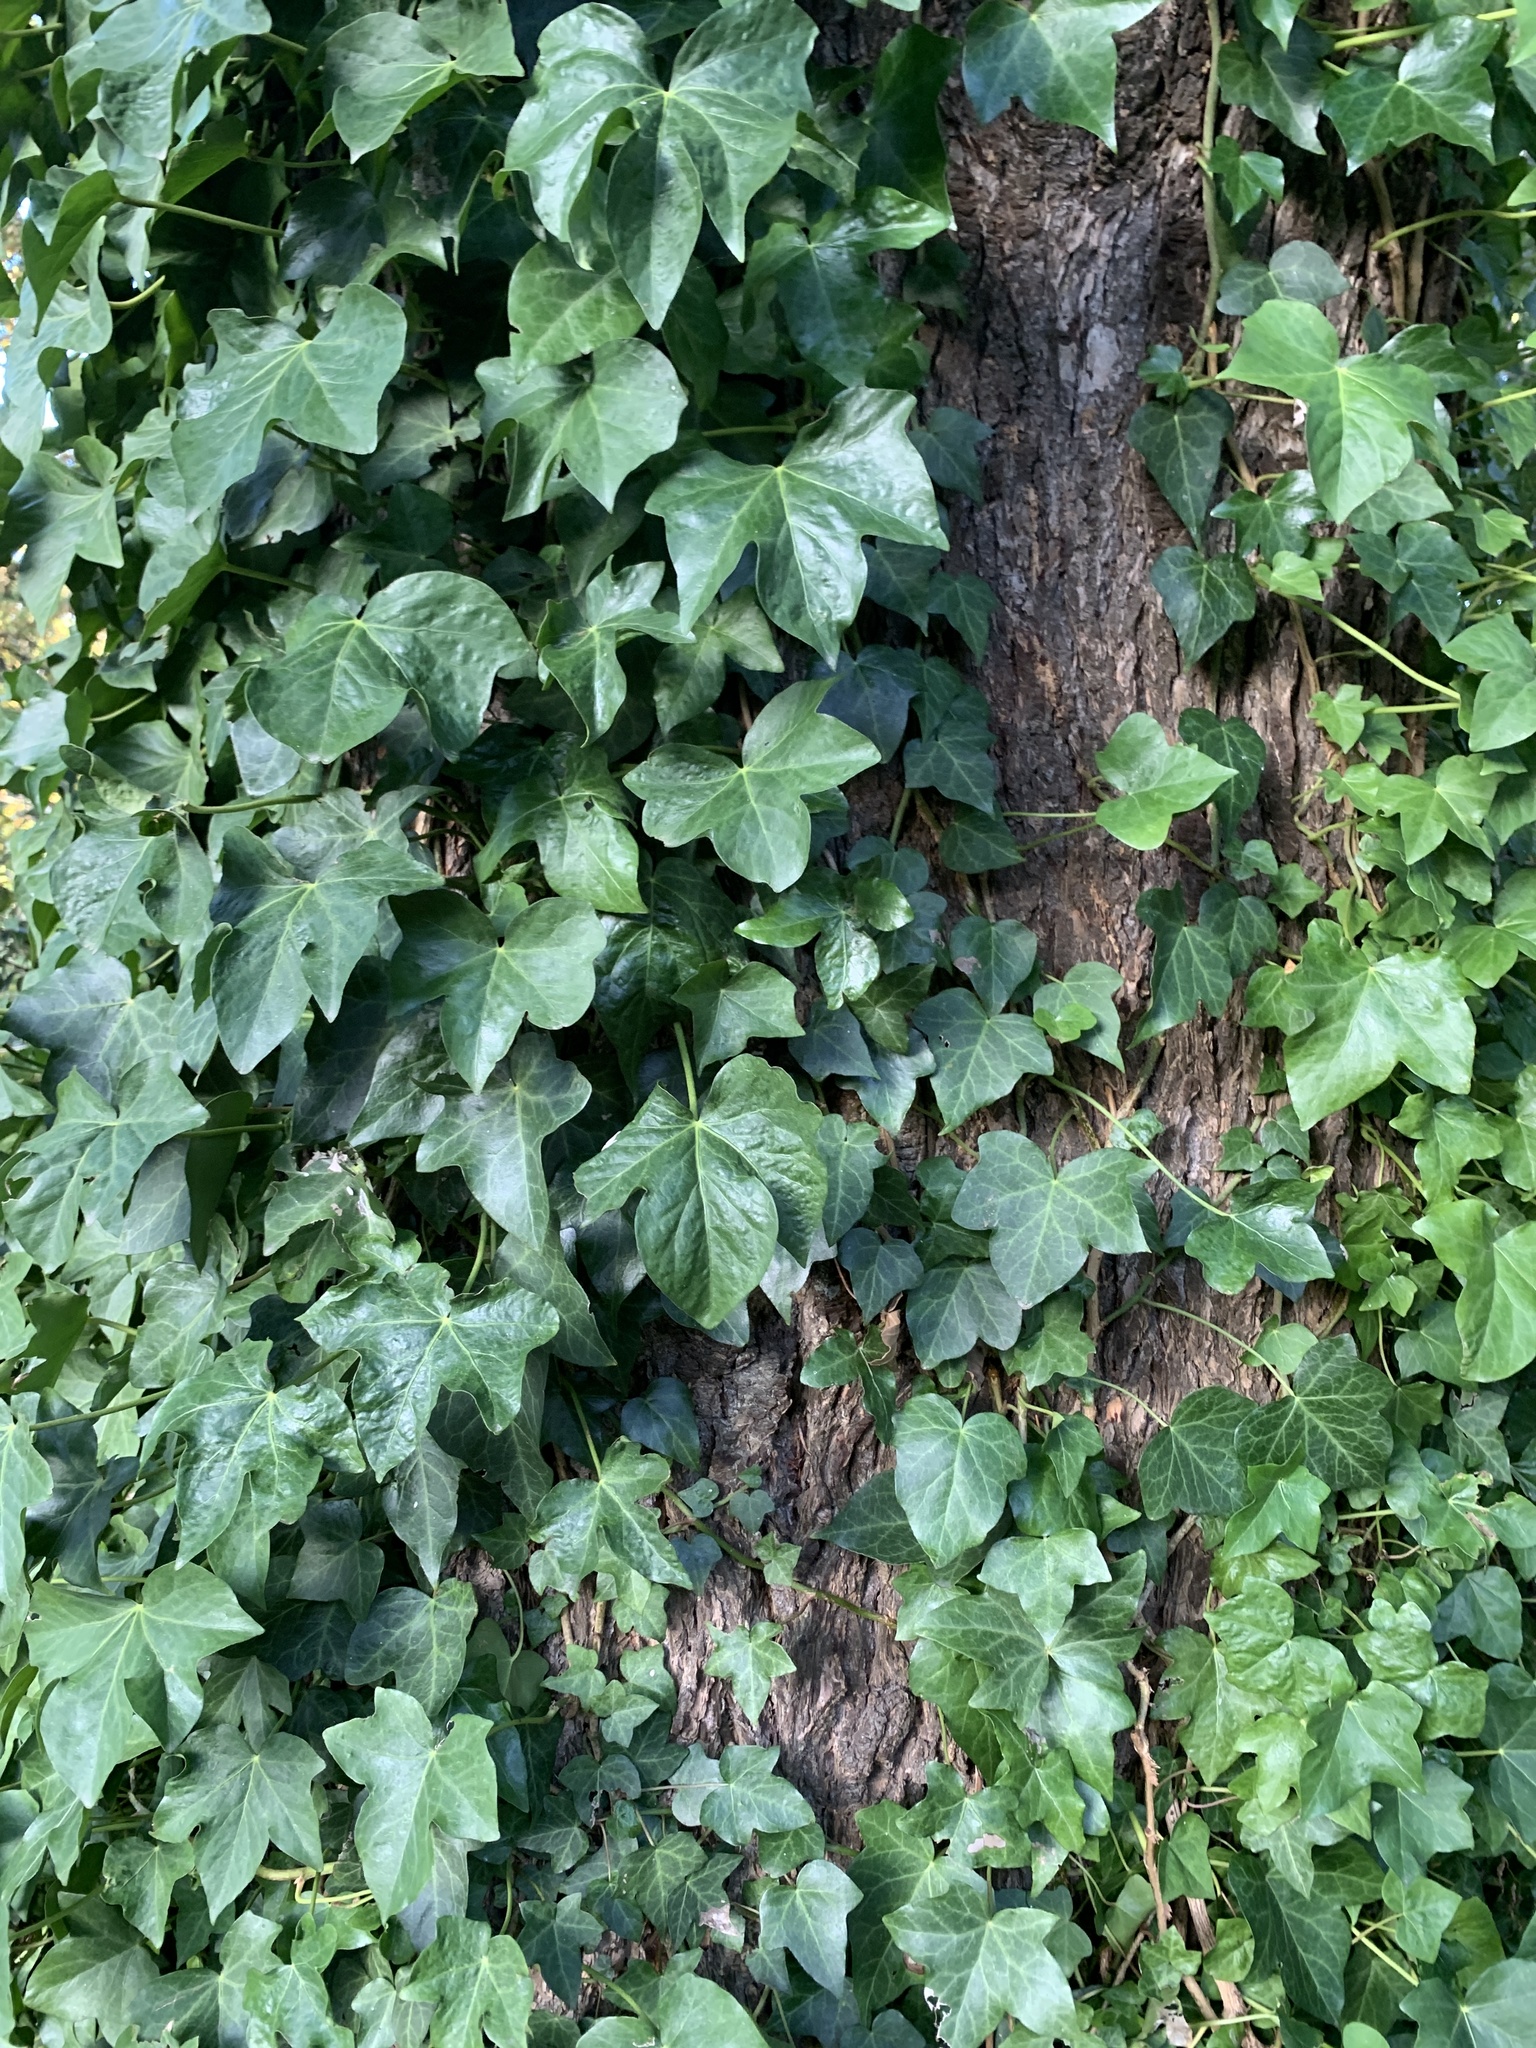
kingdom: Plantae
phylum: Tracheophyta
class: Magnoliopsida
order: Apiales
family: Araliaceae
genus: Hedera
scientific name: Hedera helix
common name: Ivy
